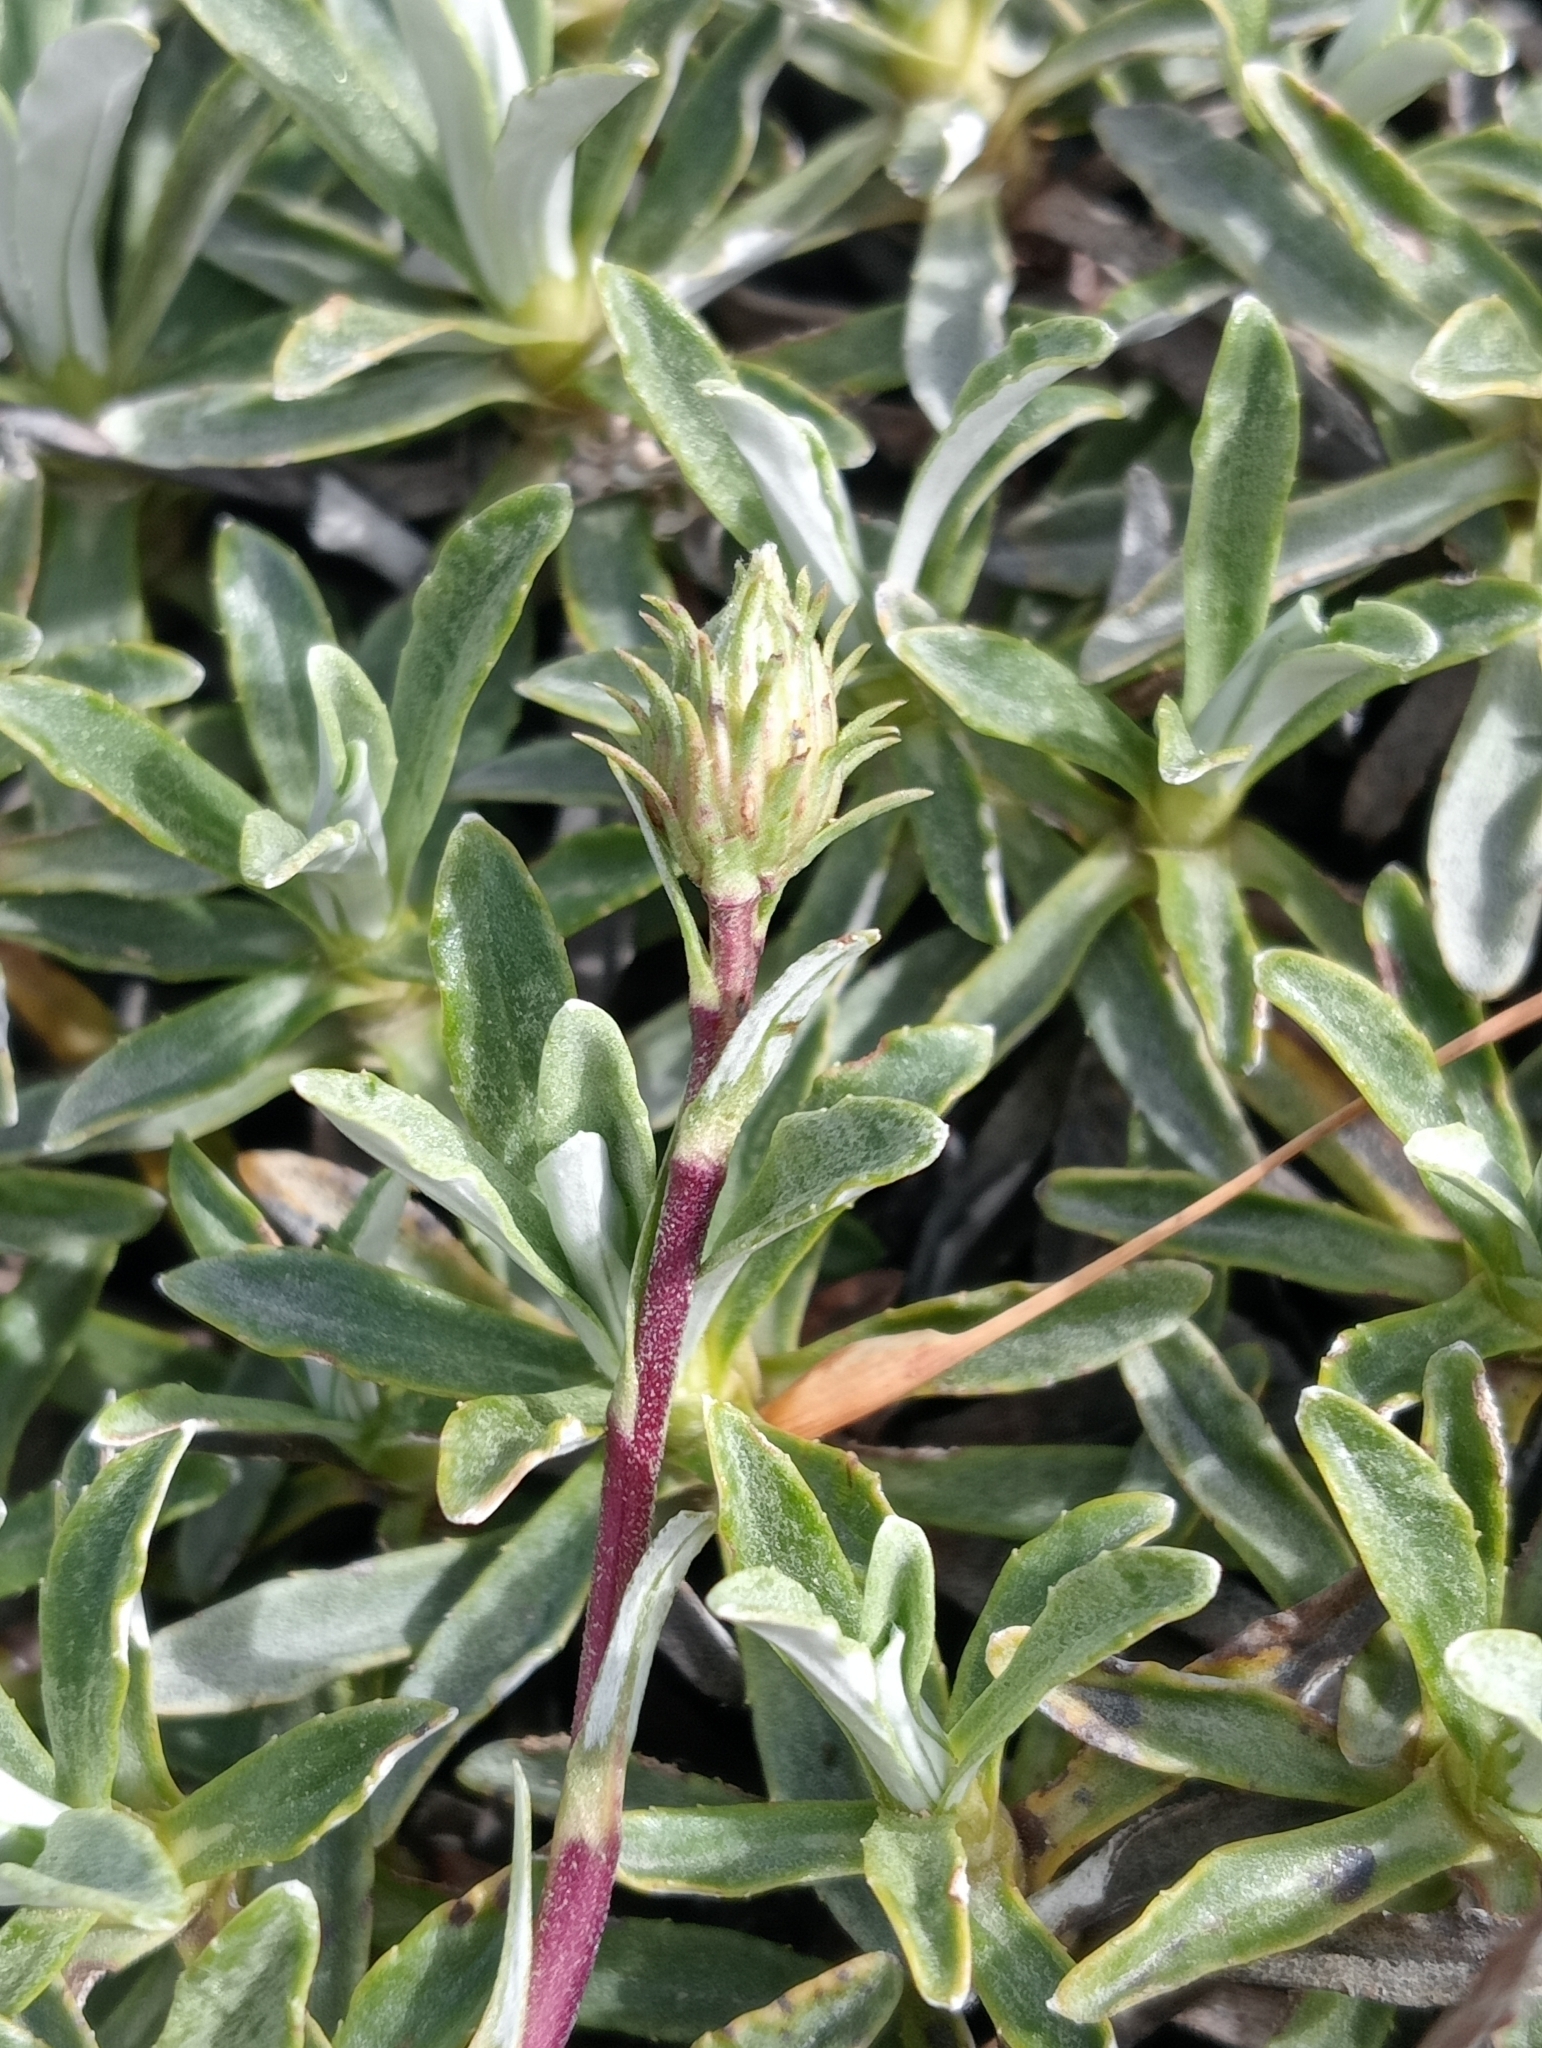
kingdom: Plantae
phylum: Tracheophyta
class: Magnoliopsida
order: Asterales
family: Asteraceae
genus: Celmisia
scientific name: Celmisia angustifolia
